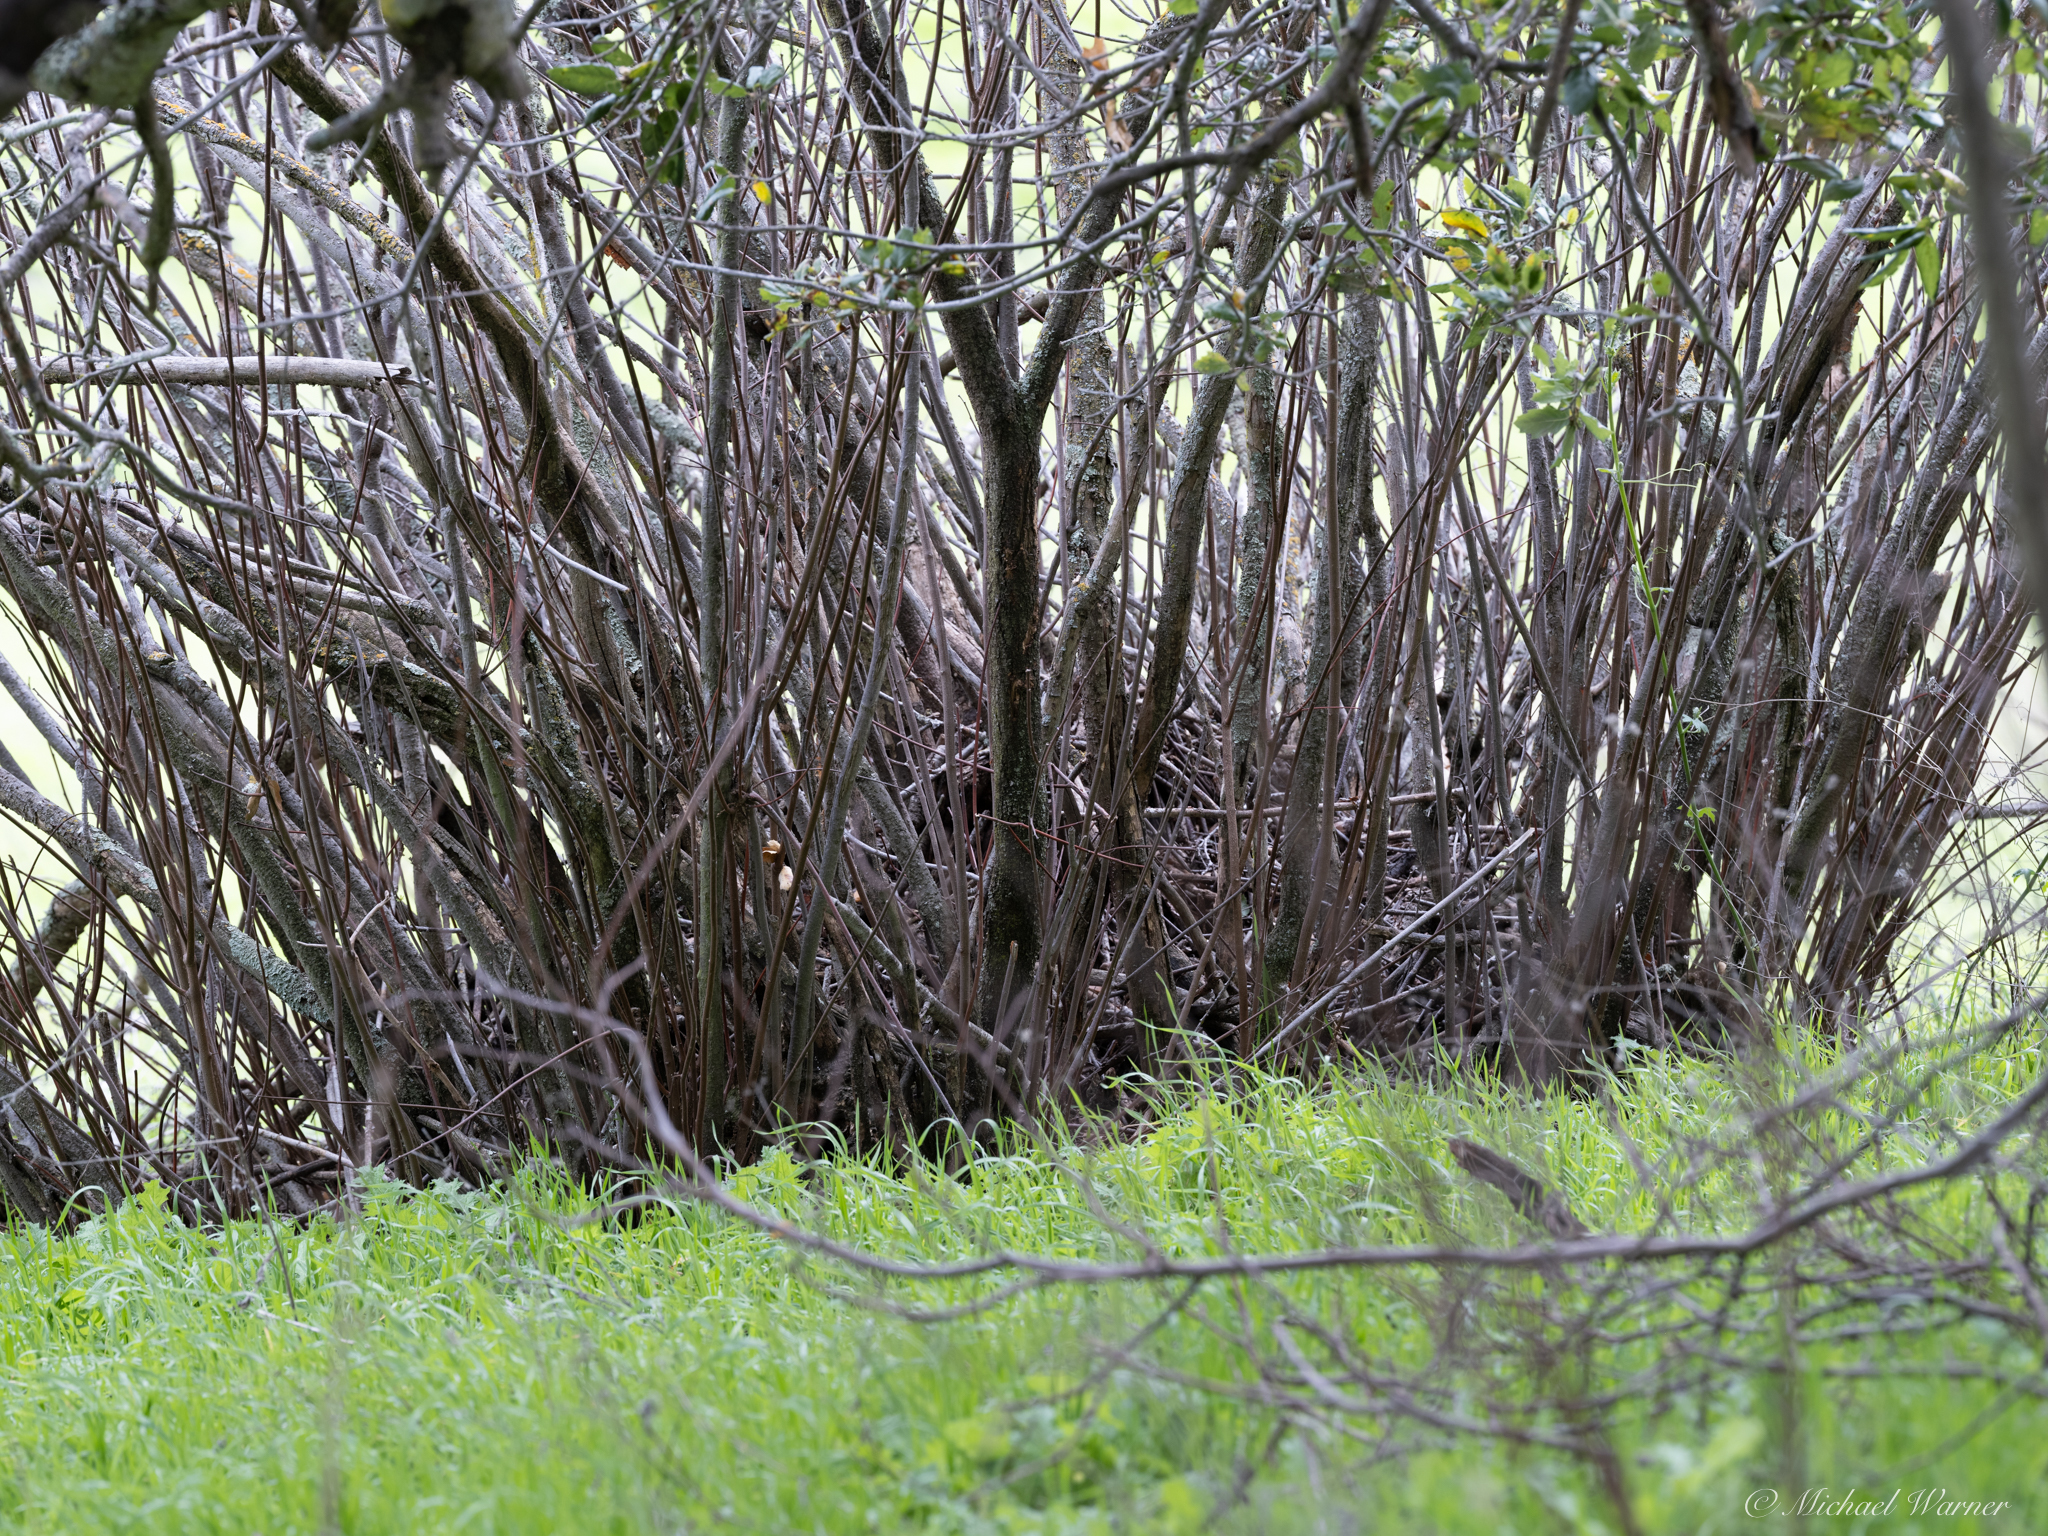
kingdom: Plantae
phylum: Tracheophyta
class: Magnoliopsida
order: Sapindales
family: Rutaceae
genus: Ptelea
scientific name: Ptelea crenulata
